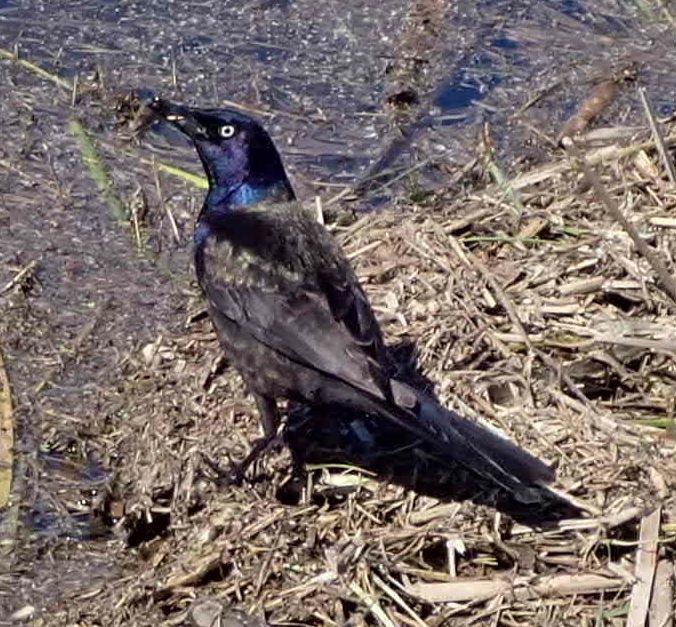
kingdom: Animalia
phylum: Chordata
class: Aves
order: Passeriformes
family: Icteridae
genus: Quiscalus
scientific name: Quiscalus quiscula
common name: Common grackle
